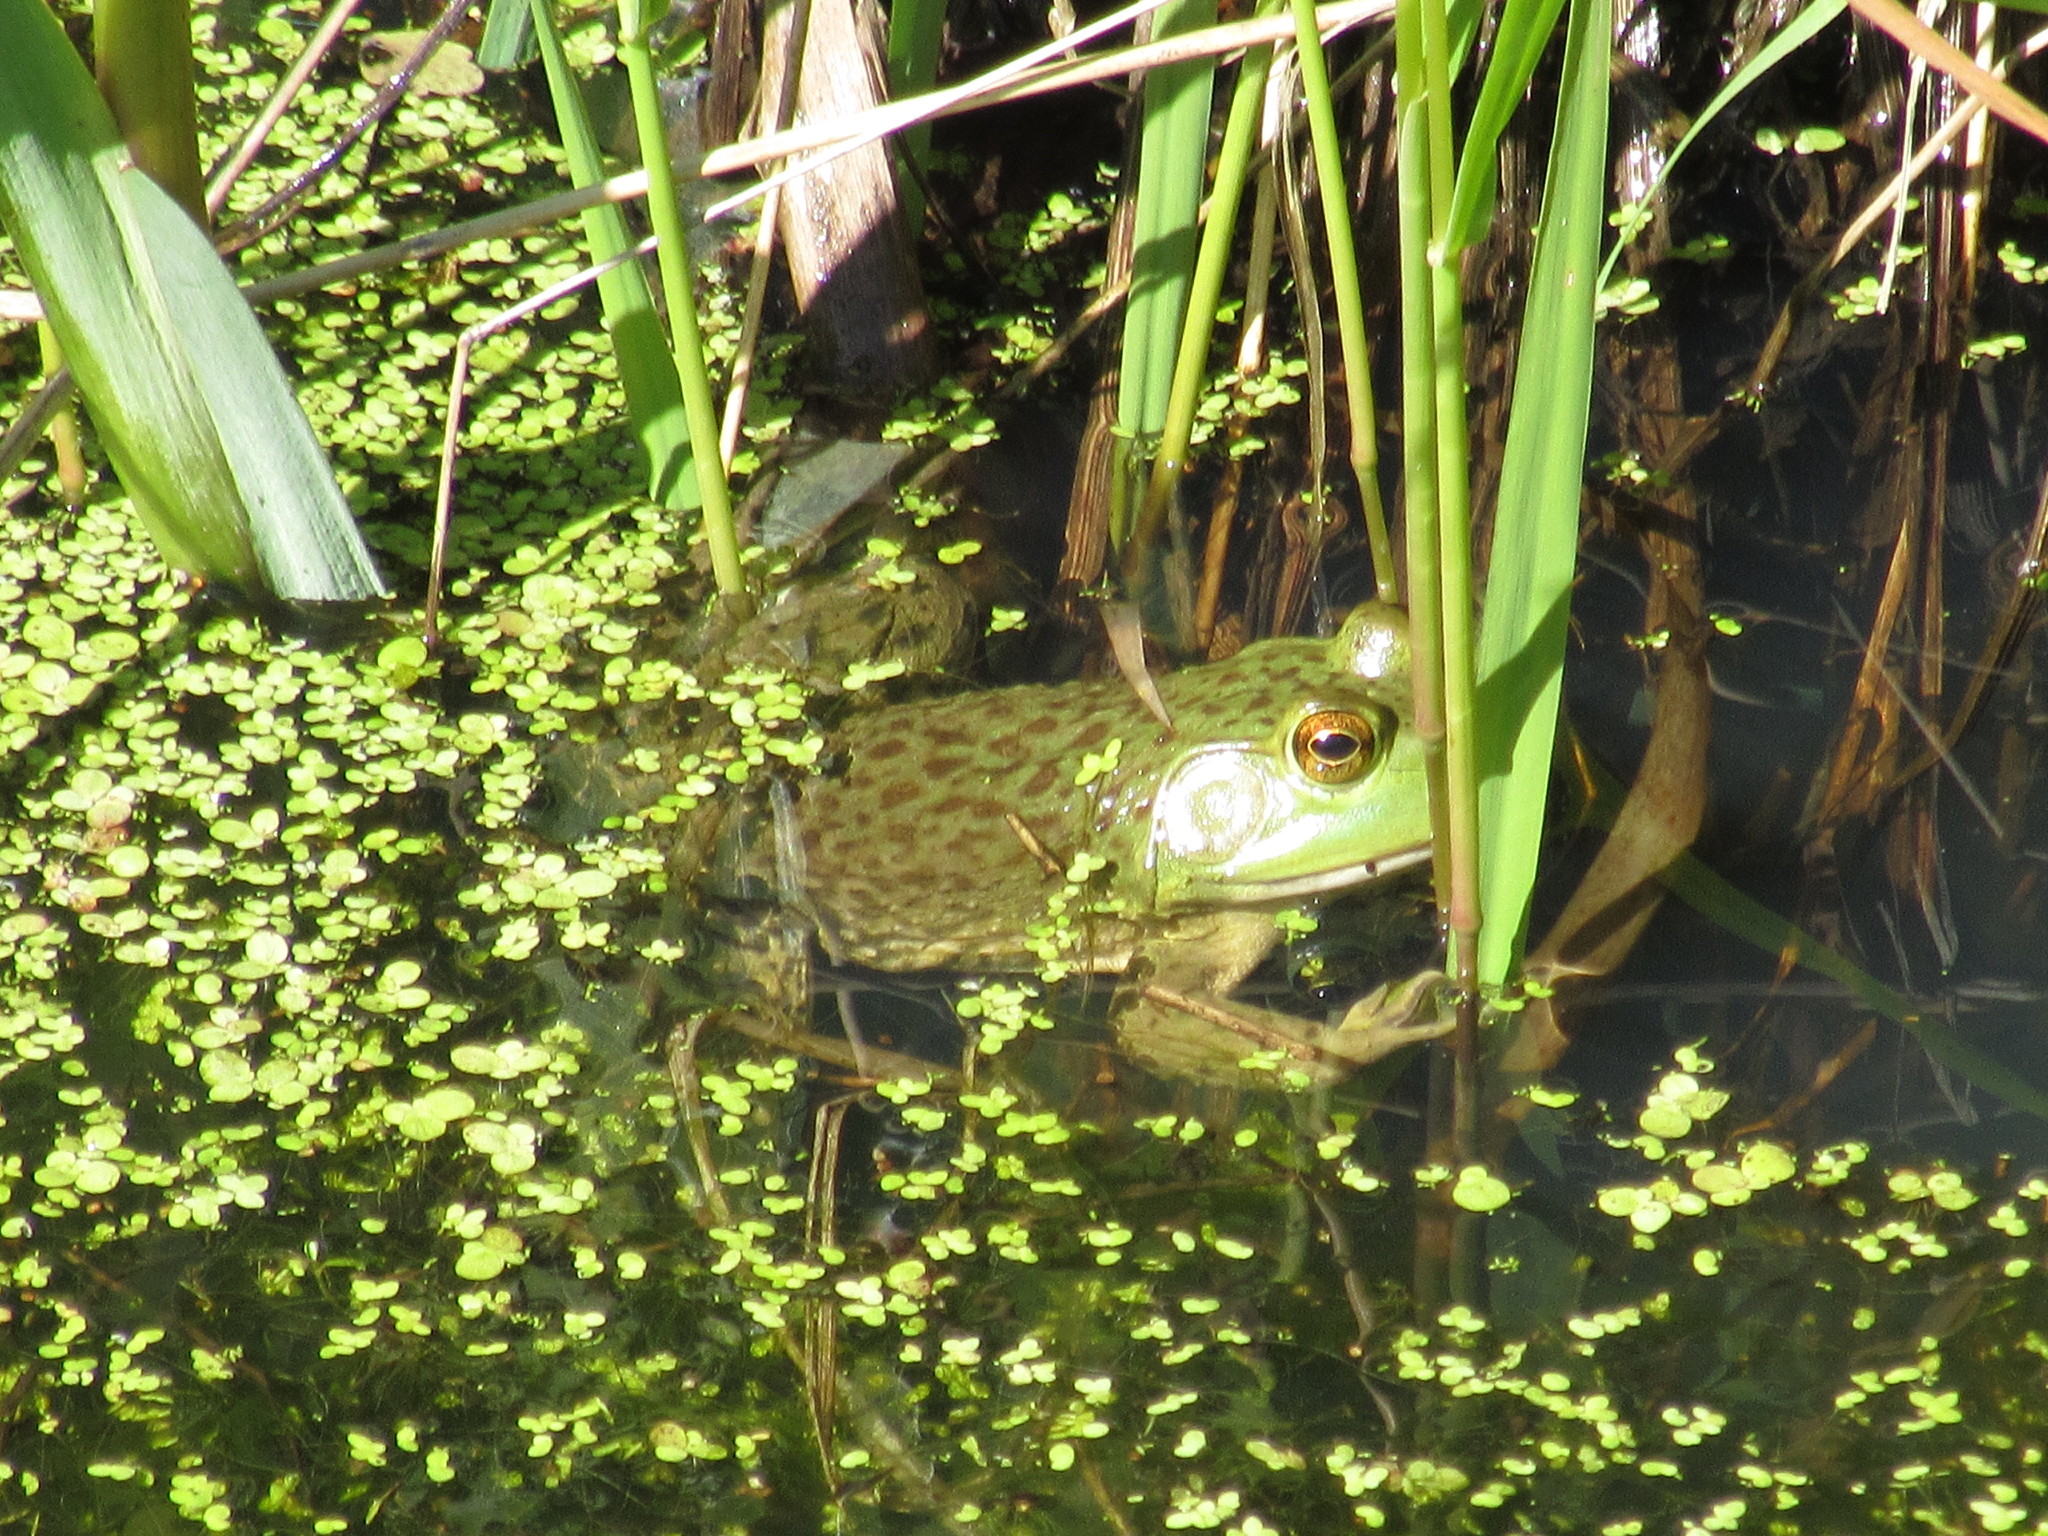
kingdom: Animalia
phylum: Chordata
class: Amphibia
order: Anura
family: Ranidae
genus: Lithobates
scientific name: Lithobates catesbeianus
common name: American bullfrog
